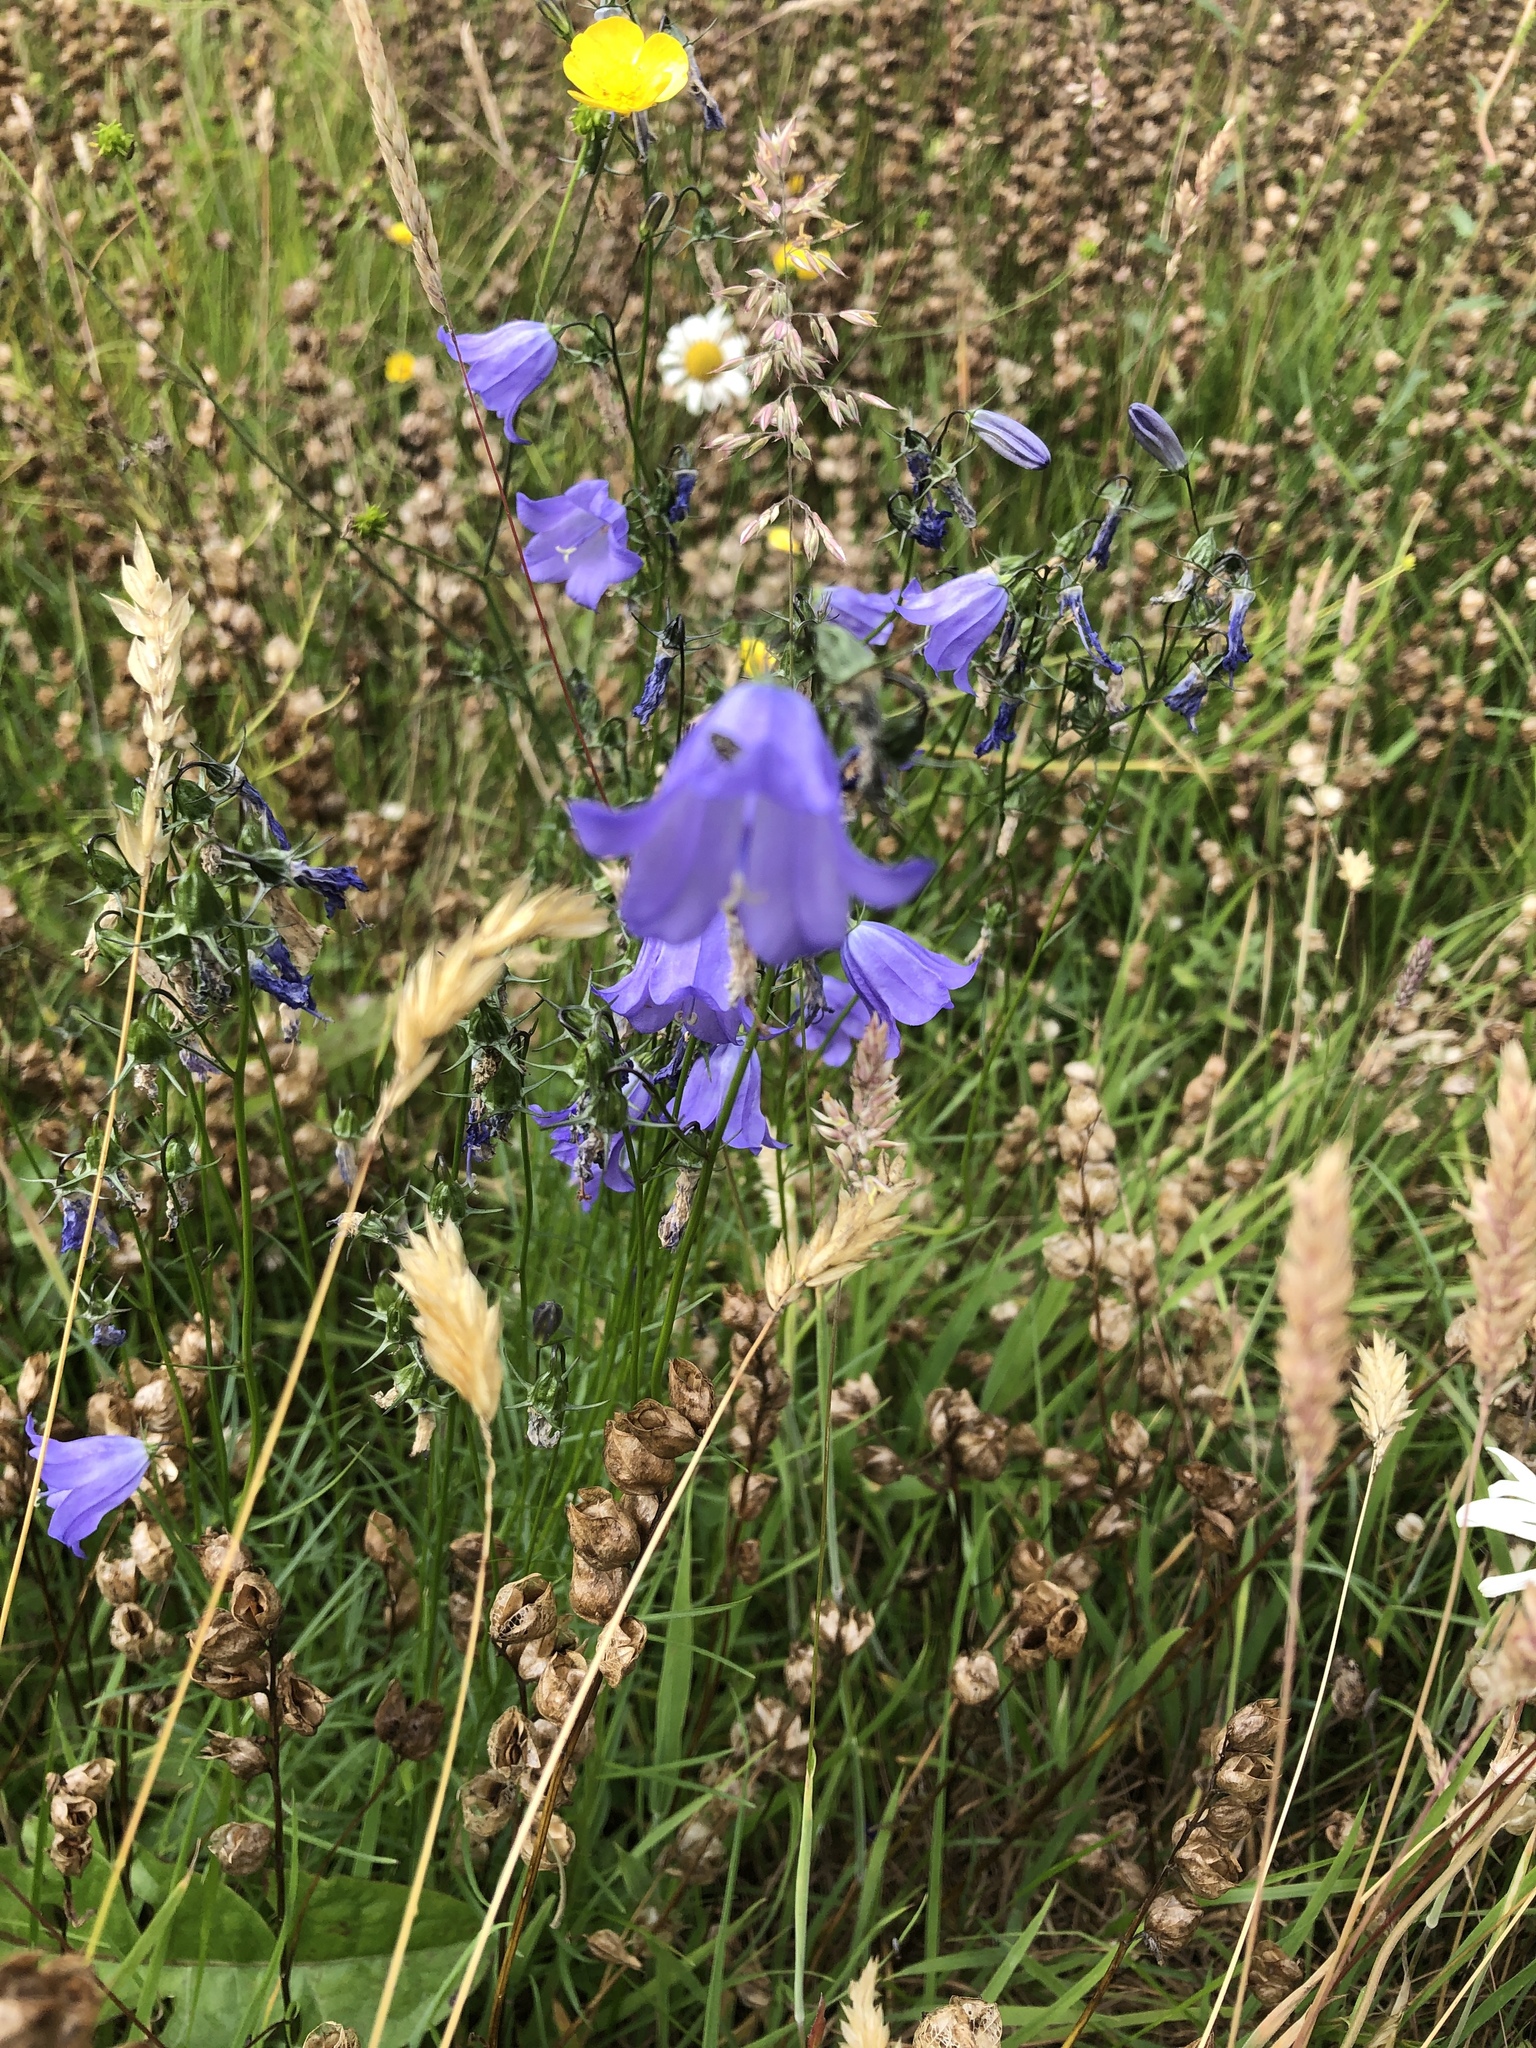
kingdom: Plantae
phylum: Tracheophyta
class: Magnoliopsida
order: Asterales
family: Campanulaceae
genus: Campanula
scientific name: Campanula rotundifolia
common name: Harebell
